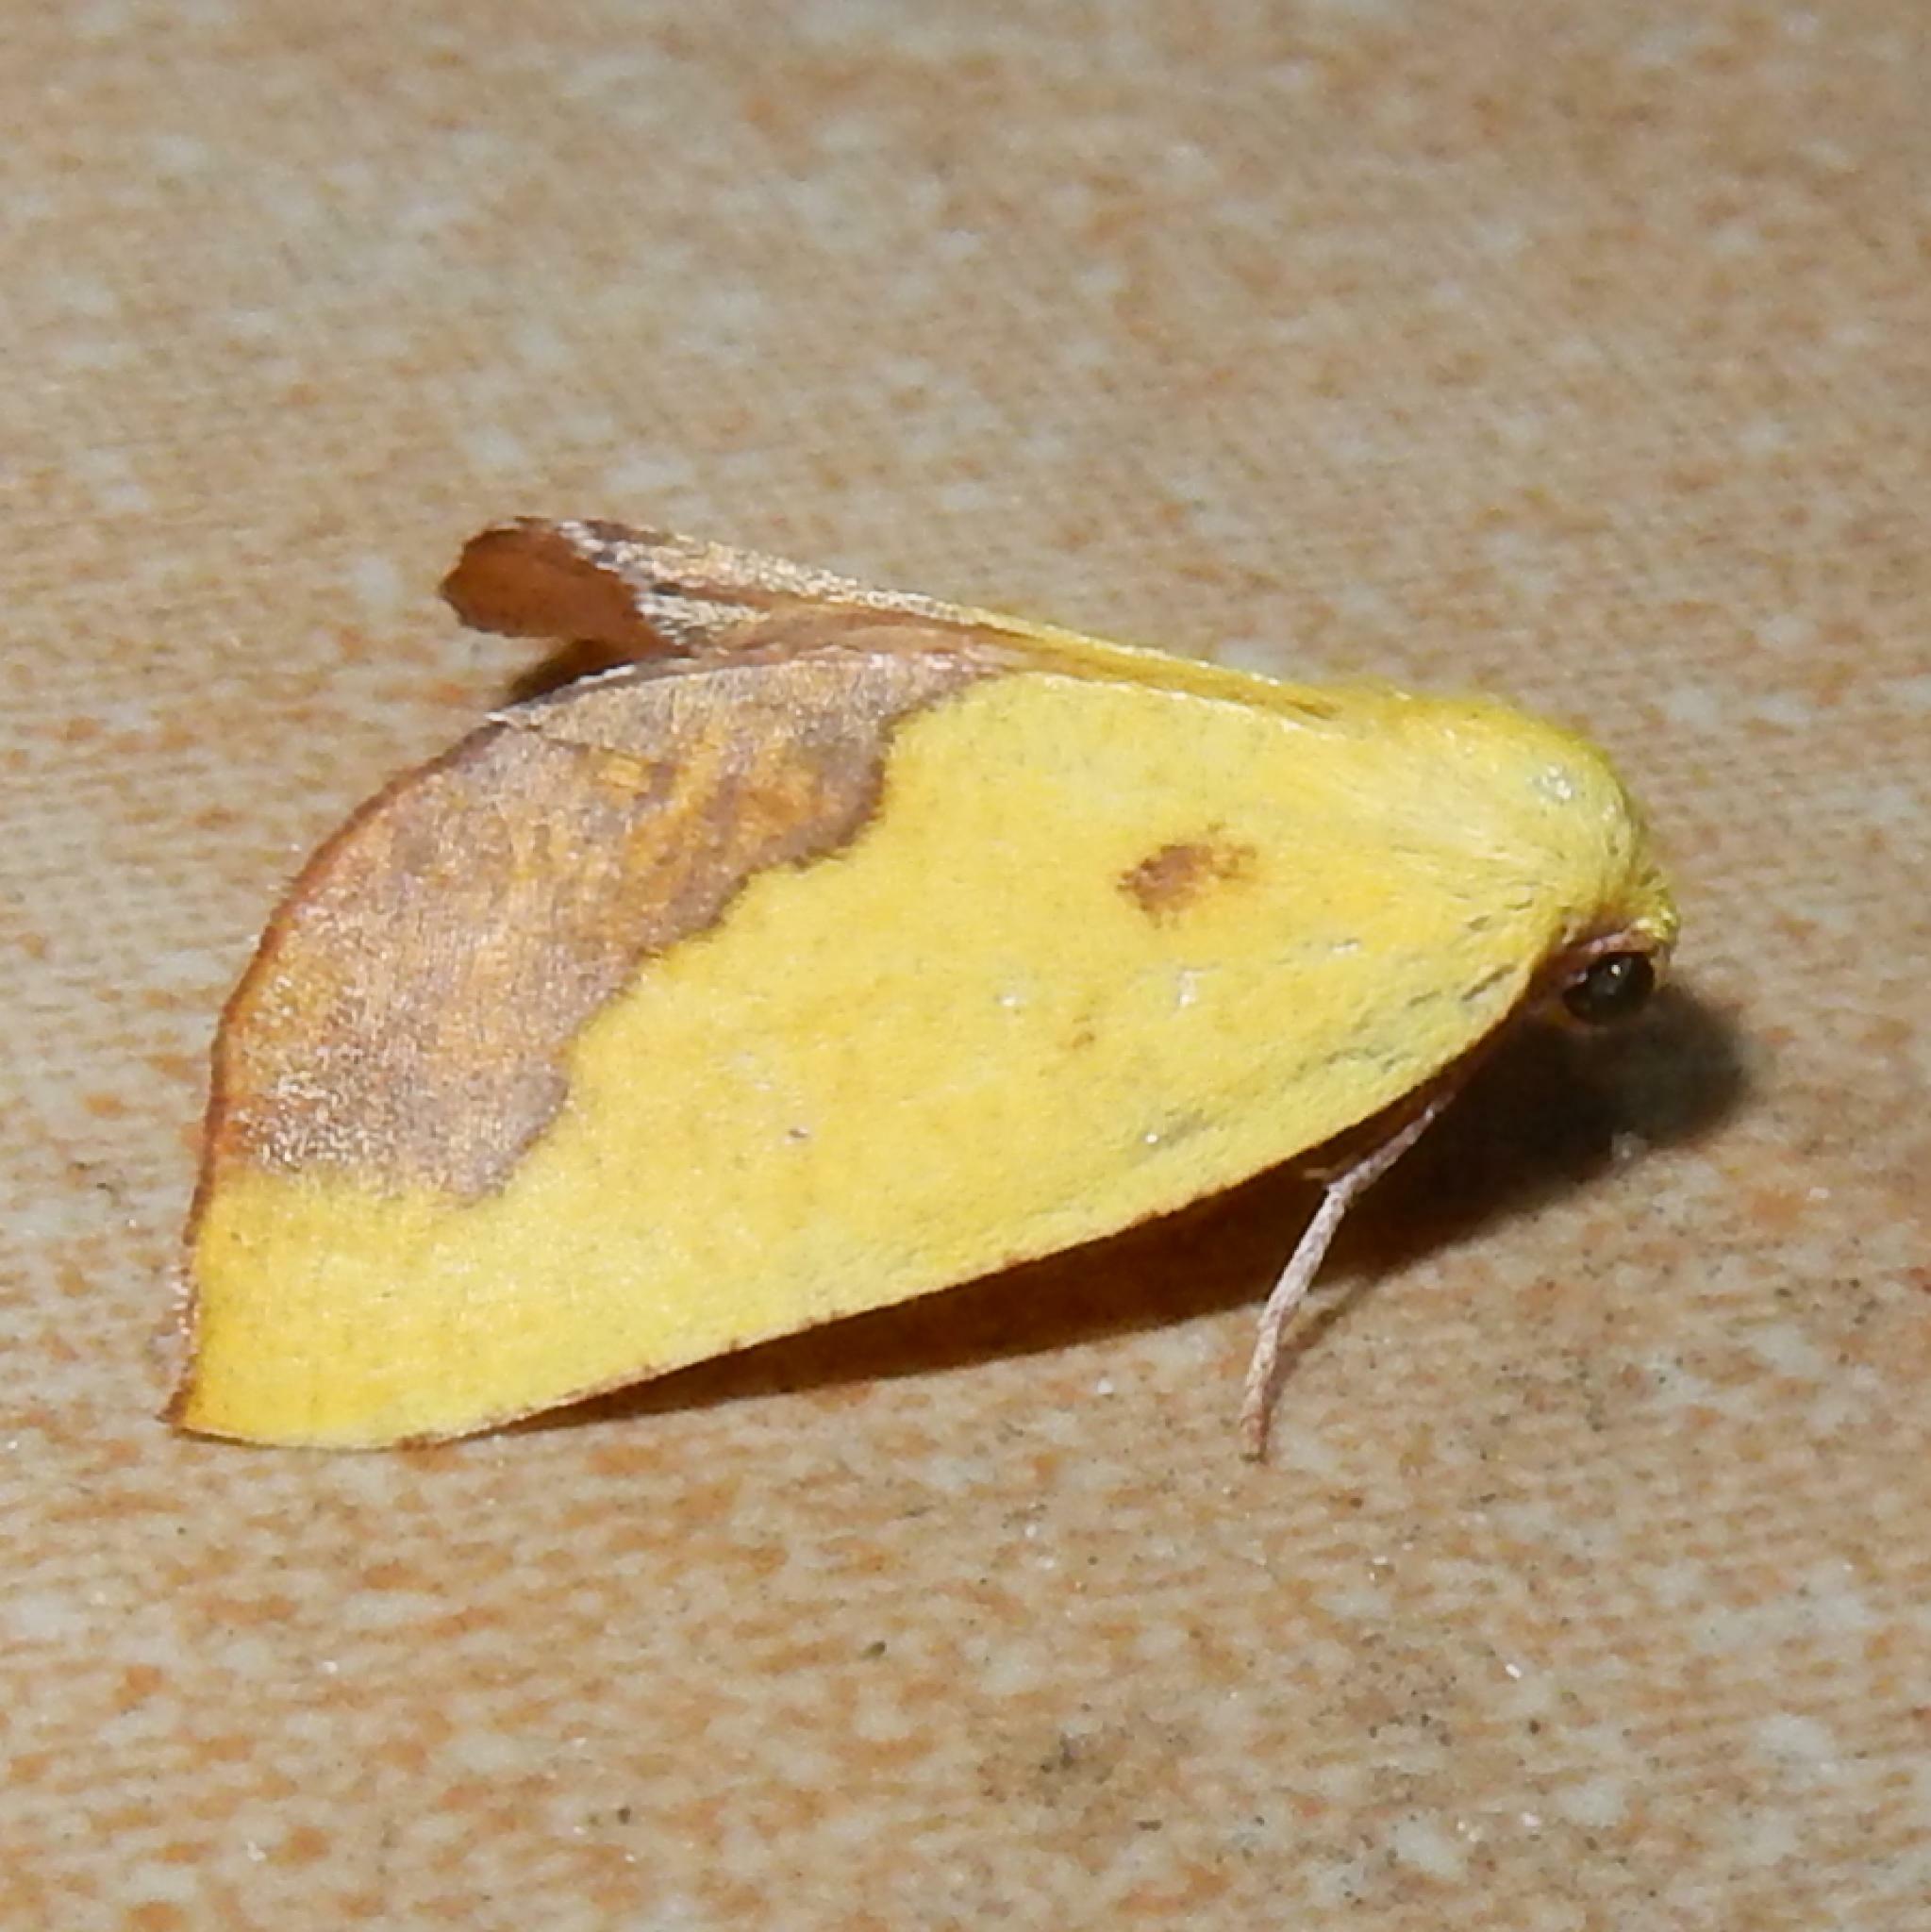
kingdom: Animalia
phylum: Arthropoda
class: Insecta
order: Lepidoptera
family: Geometridae
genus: Sicyodes
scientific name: Sicyodes cambogiaria
